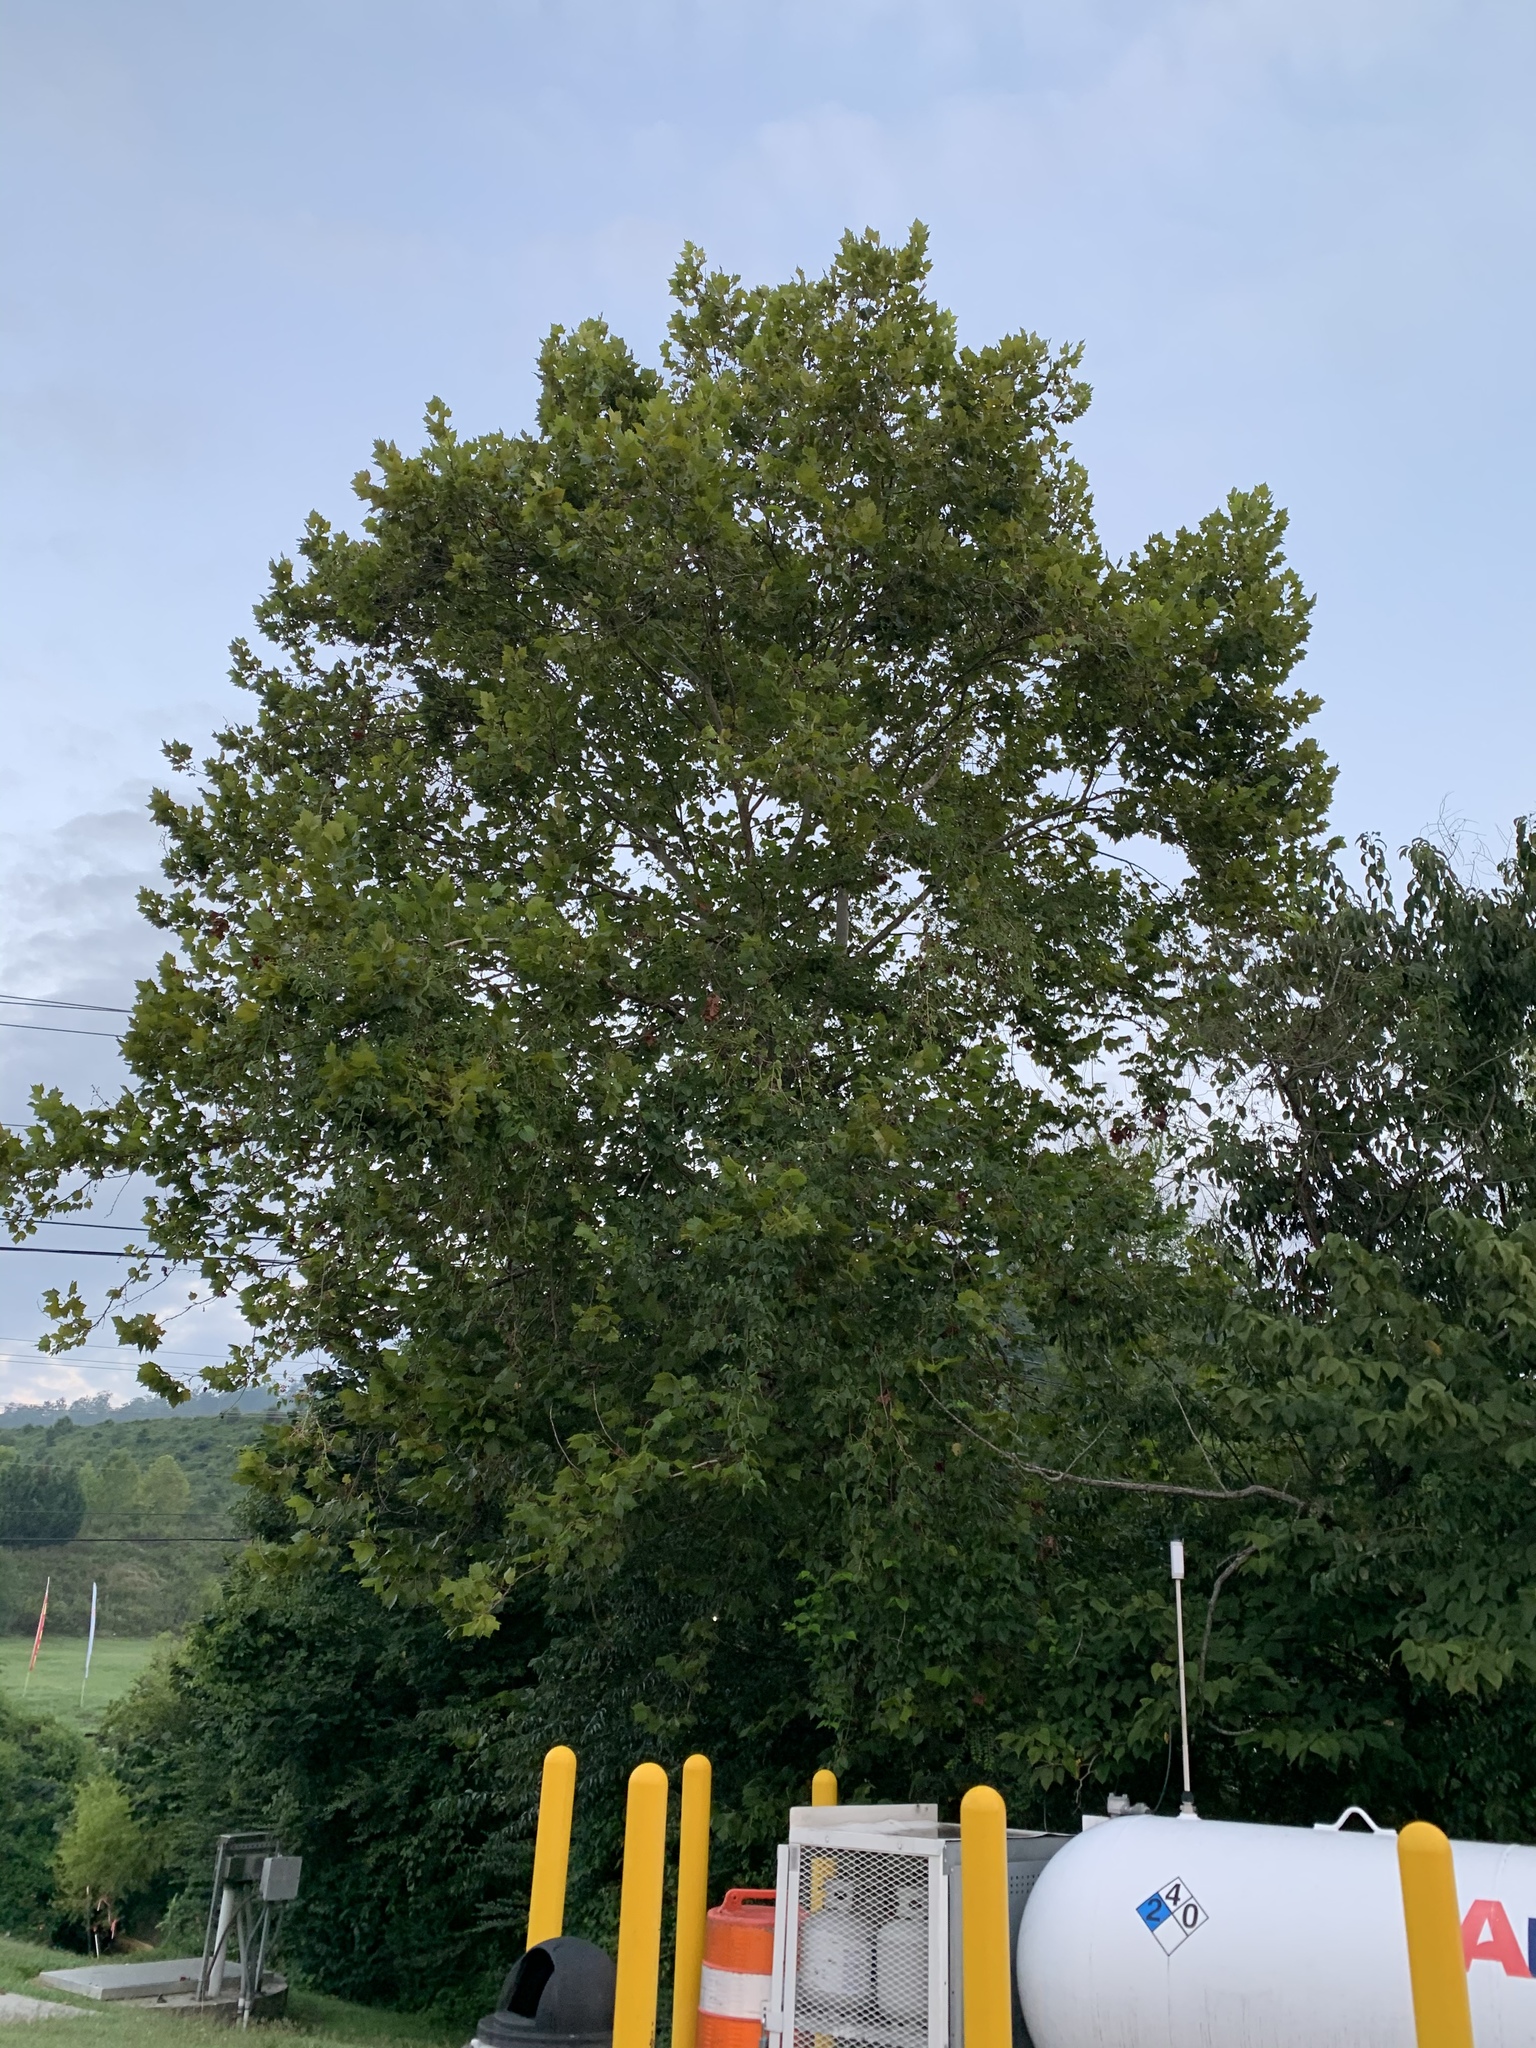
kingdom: Plantae
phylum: Tracheophyta
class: Magnoliopsida
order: Proteales
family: Platanaceae
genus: Platanus
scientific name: Platanus occidentalis
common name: American sycamore
